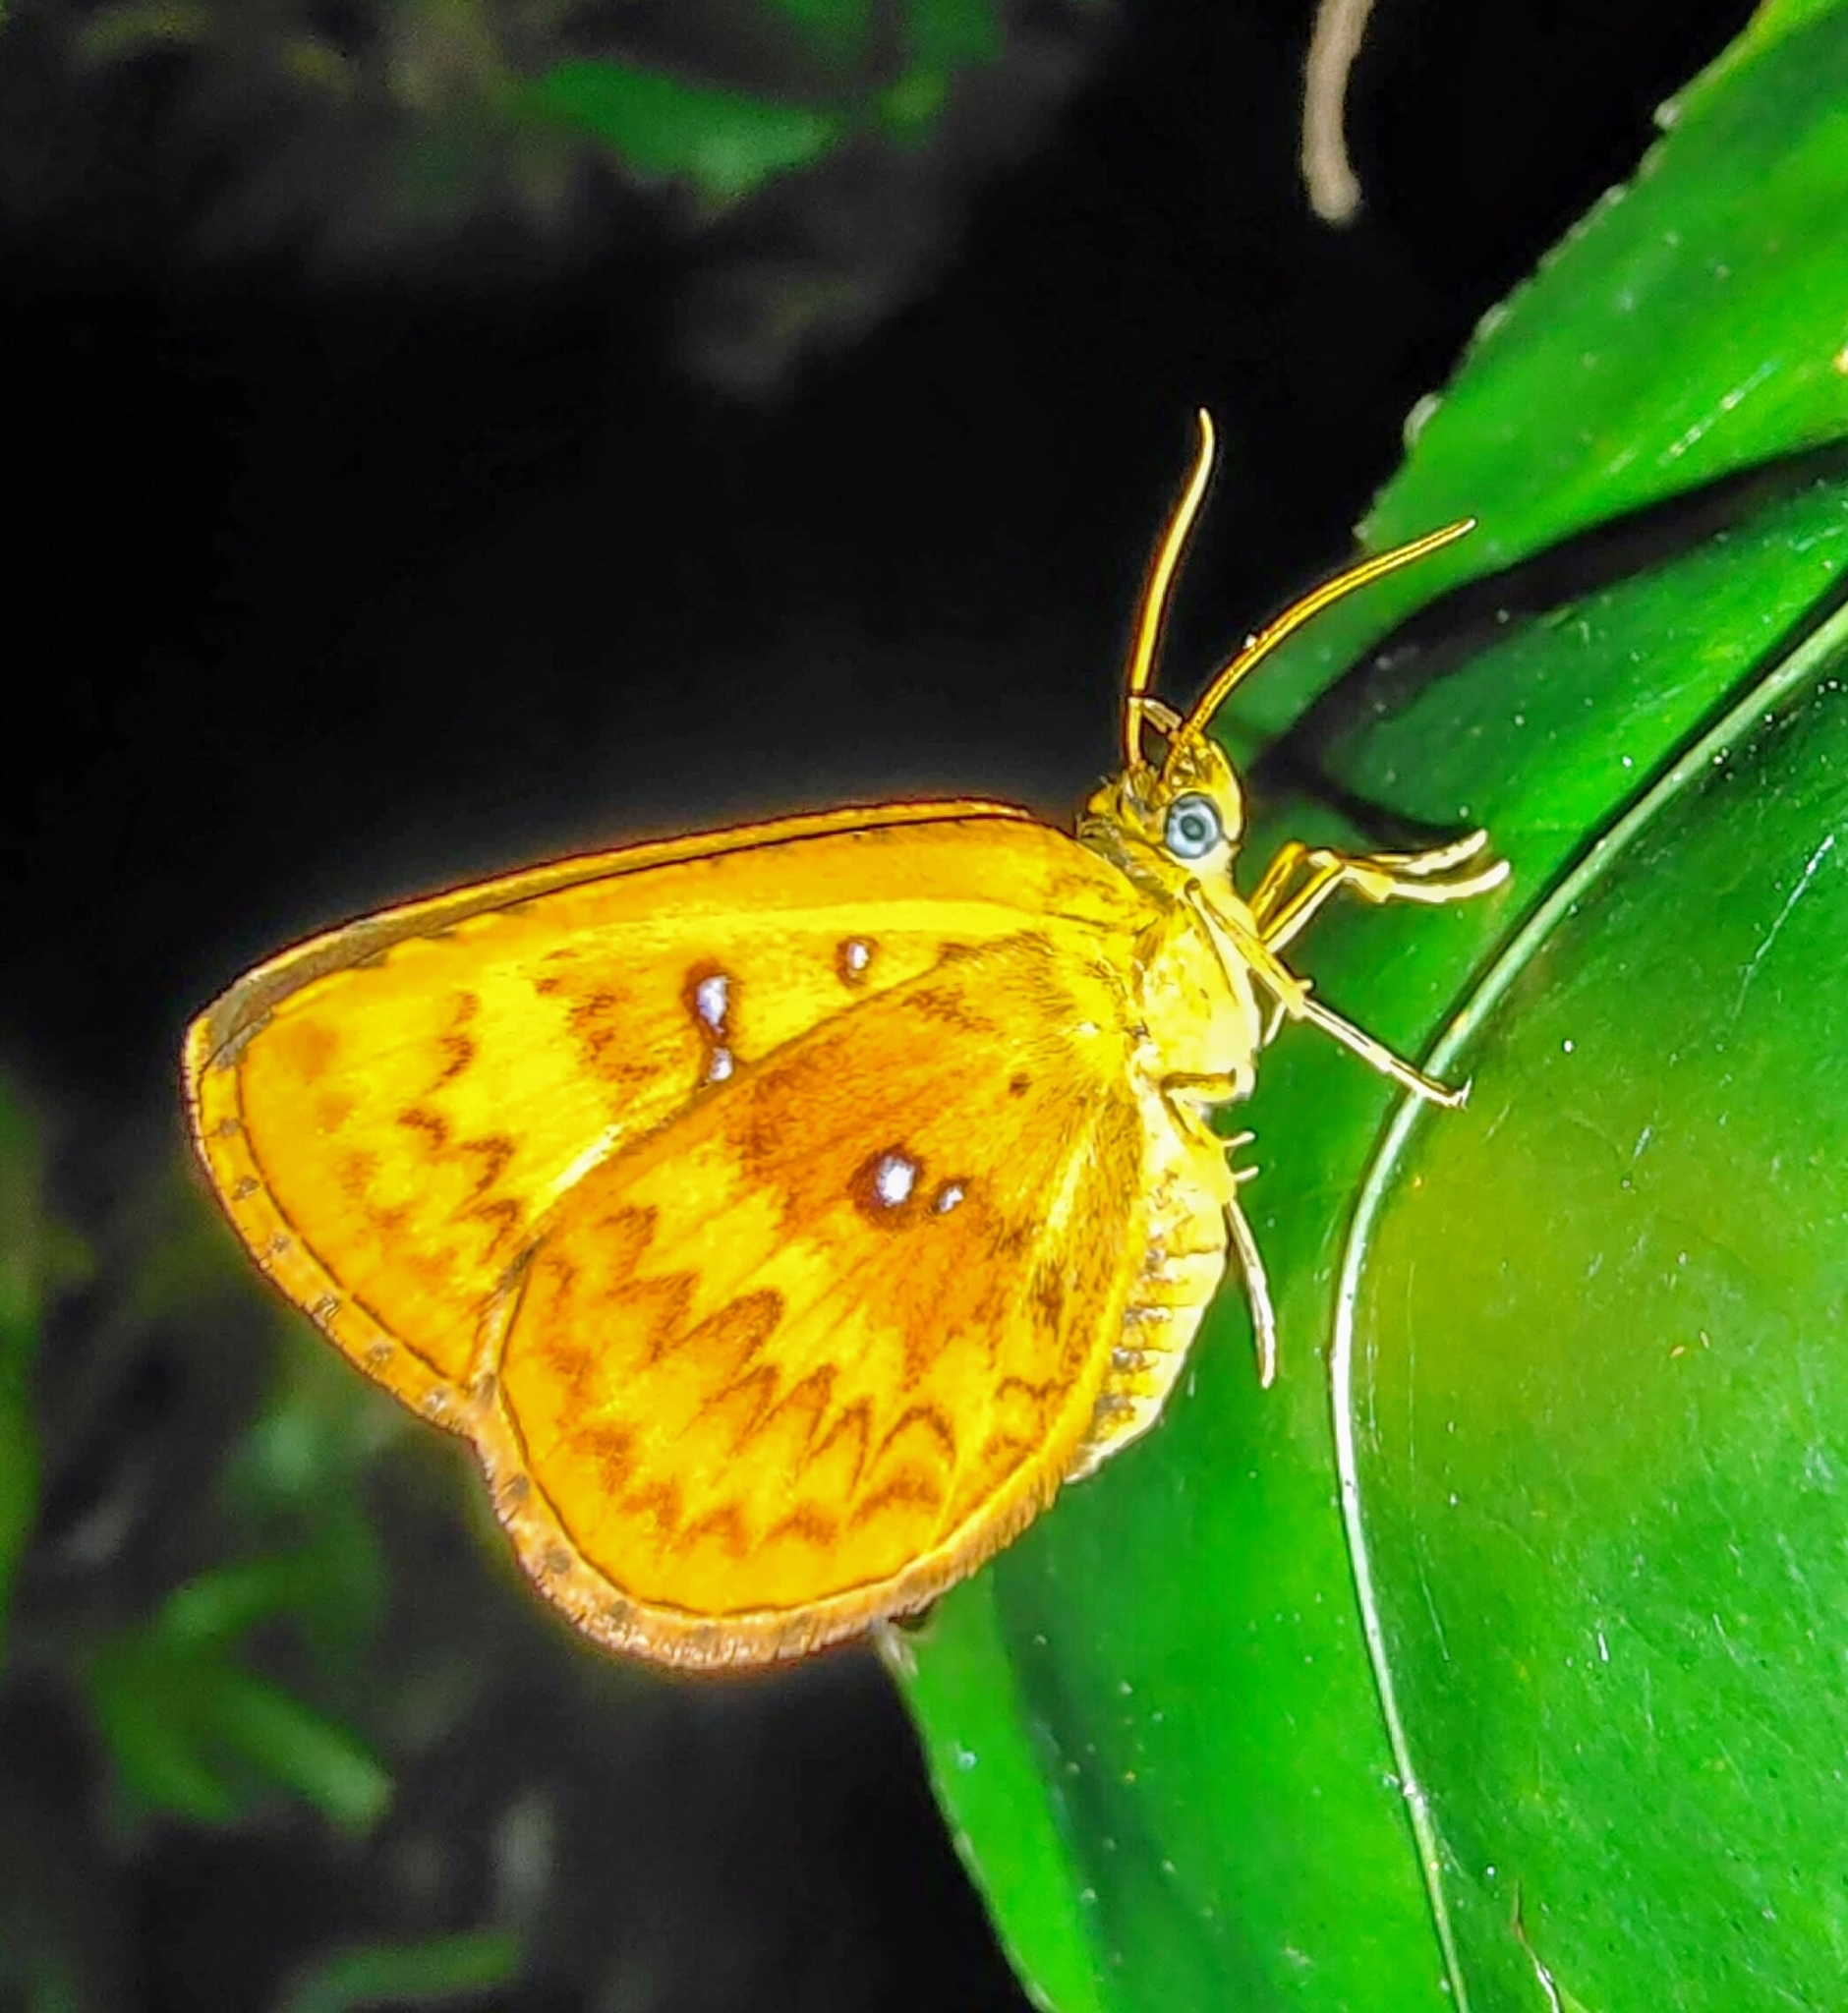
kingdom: Animalia
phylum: Arthropoda
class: Insecta
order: Lepidoptera
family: Callidulidae
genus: Tetragonus
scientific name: Tetragonus lycaenoides
